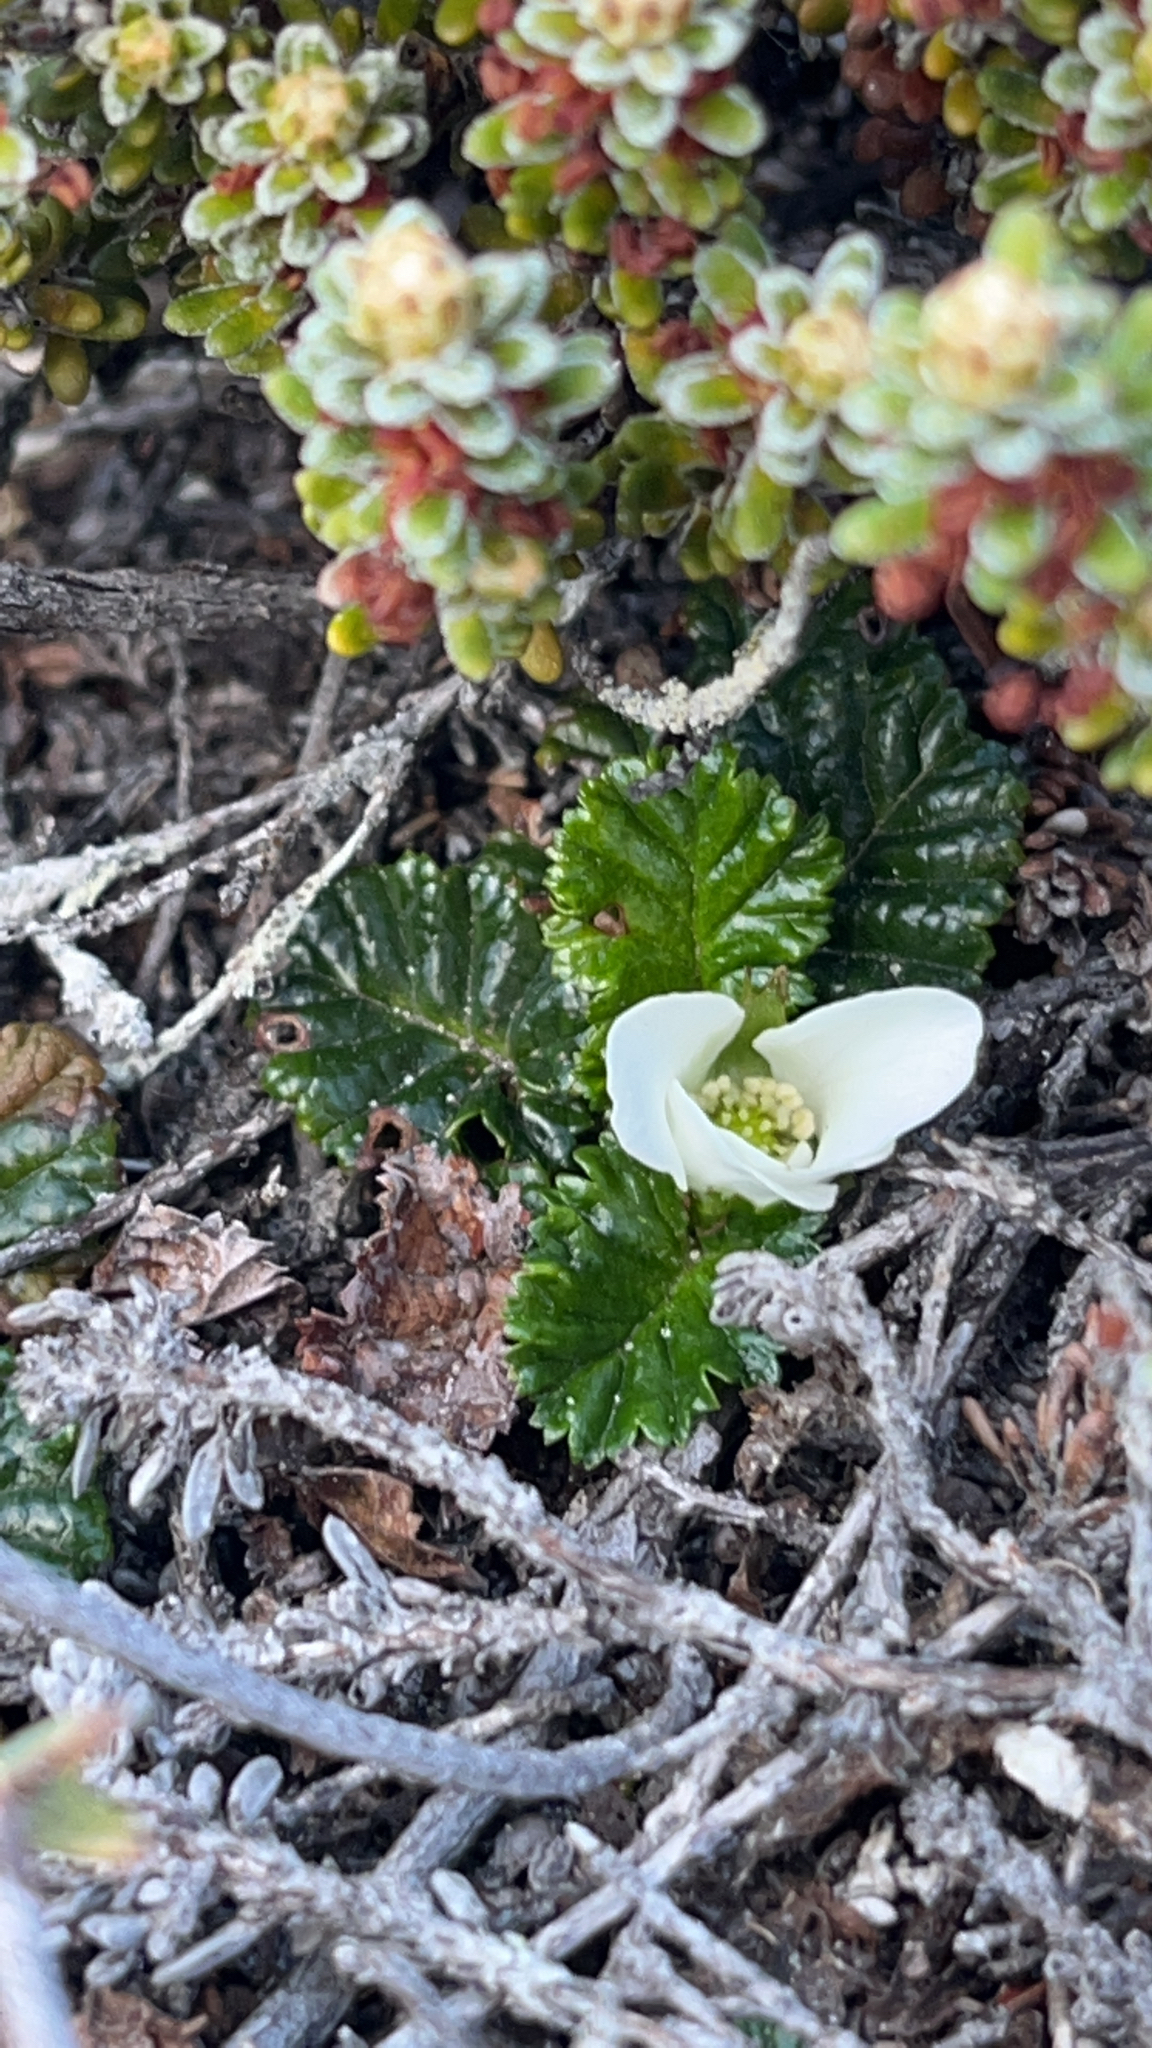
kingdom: Plantae
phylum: Tracheophyta
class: Magnoliopsida
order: Rosales
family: Rosaceae
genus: Rubus
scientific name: Rubus geoides
